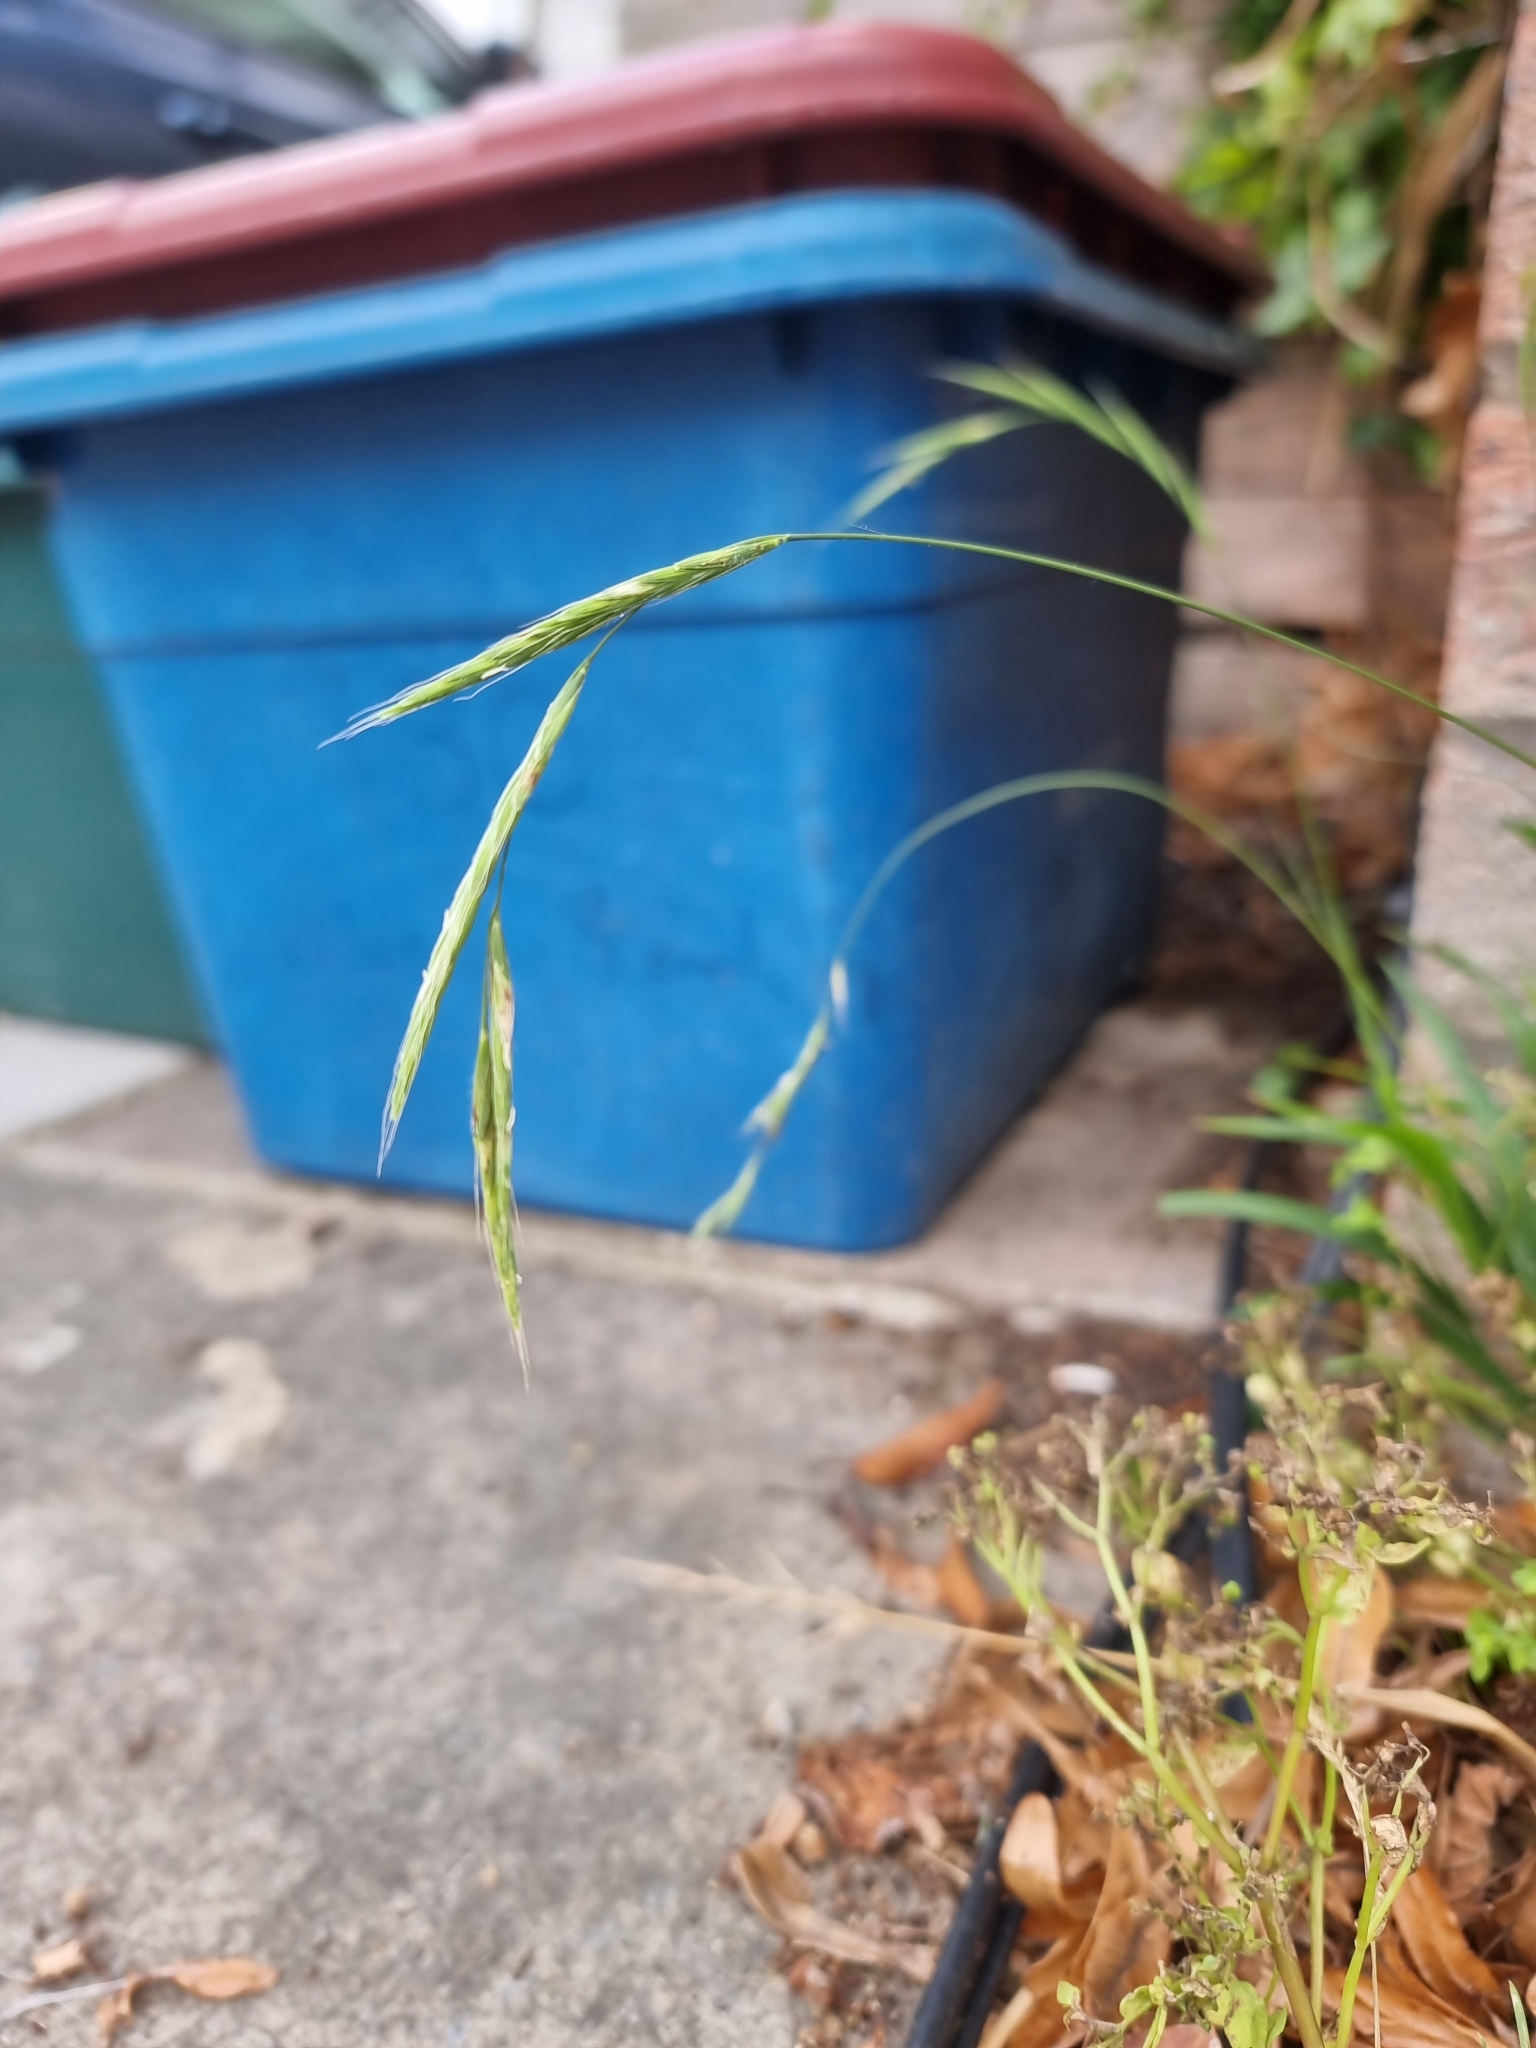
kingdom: Plantae
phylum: Tracheophyta
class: Liliopsida
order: Poales
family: Poaceae
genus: Brachypodium
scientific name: Brachypodium sylvaticum
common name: False-brome
